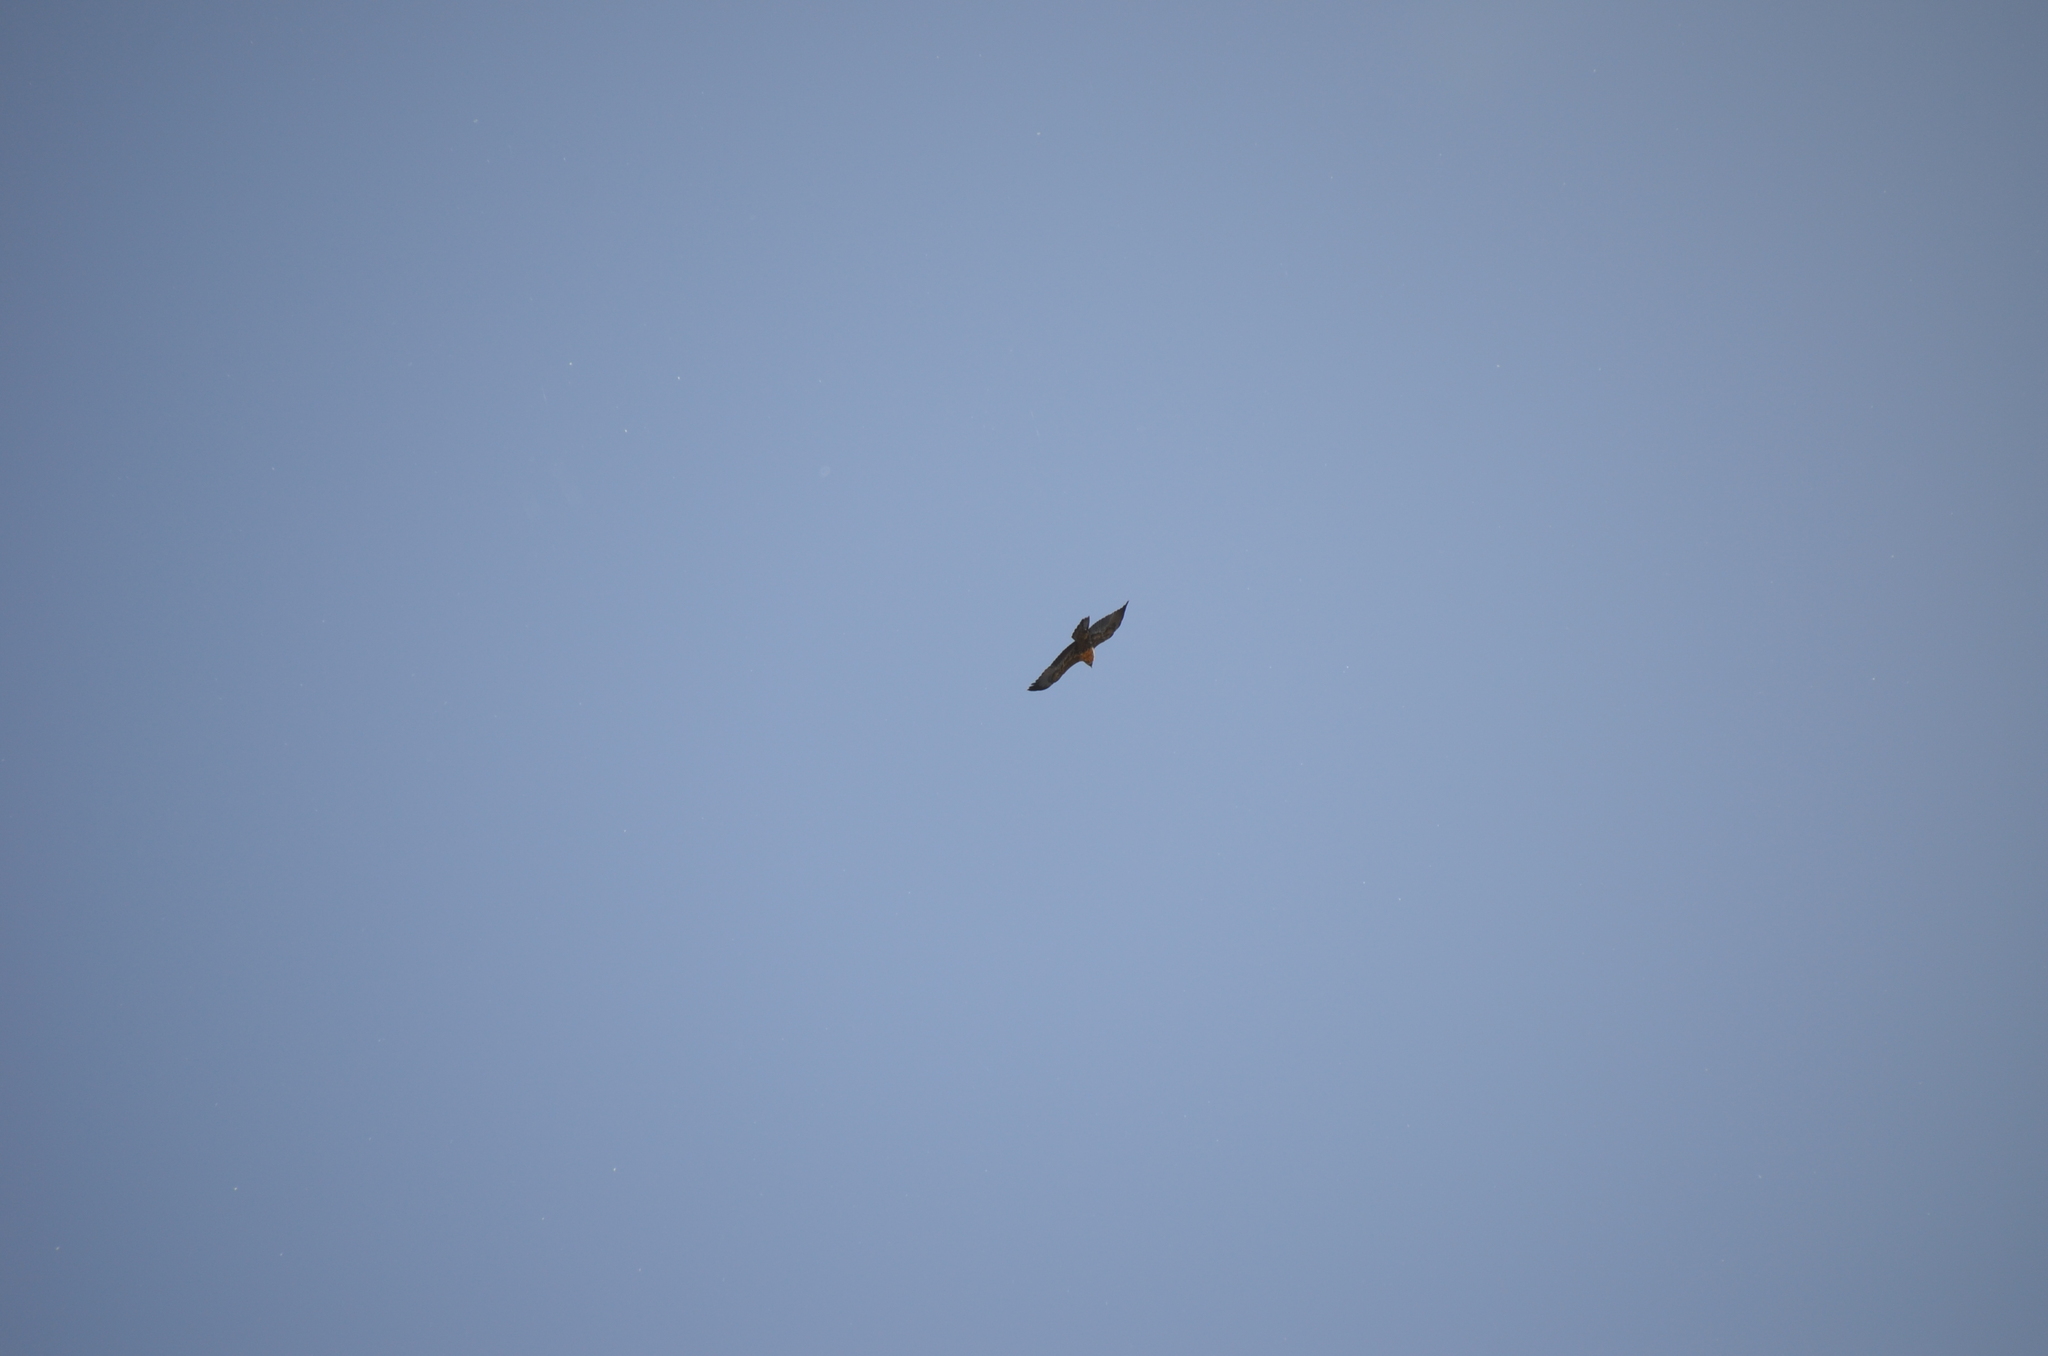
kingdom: Animalia
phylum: Chordata
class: Aves
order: Accipitriformes
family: Accipitridae
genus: Geranoaetus
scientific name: Geranoaetus melanoleucus
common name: Black-chested buzzard-eagle
